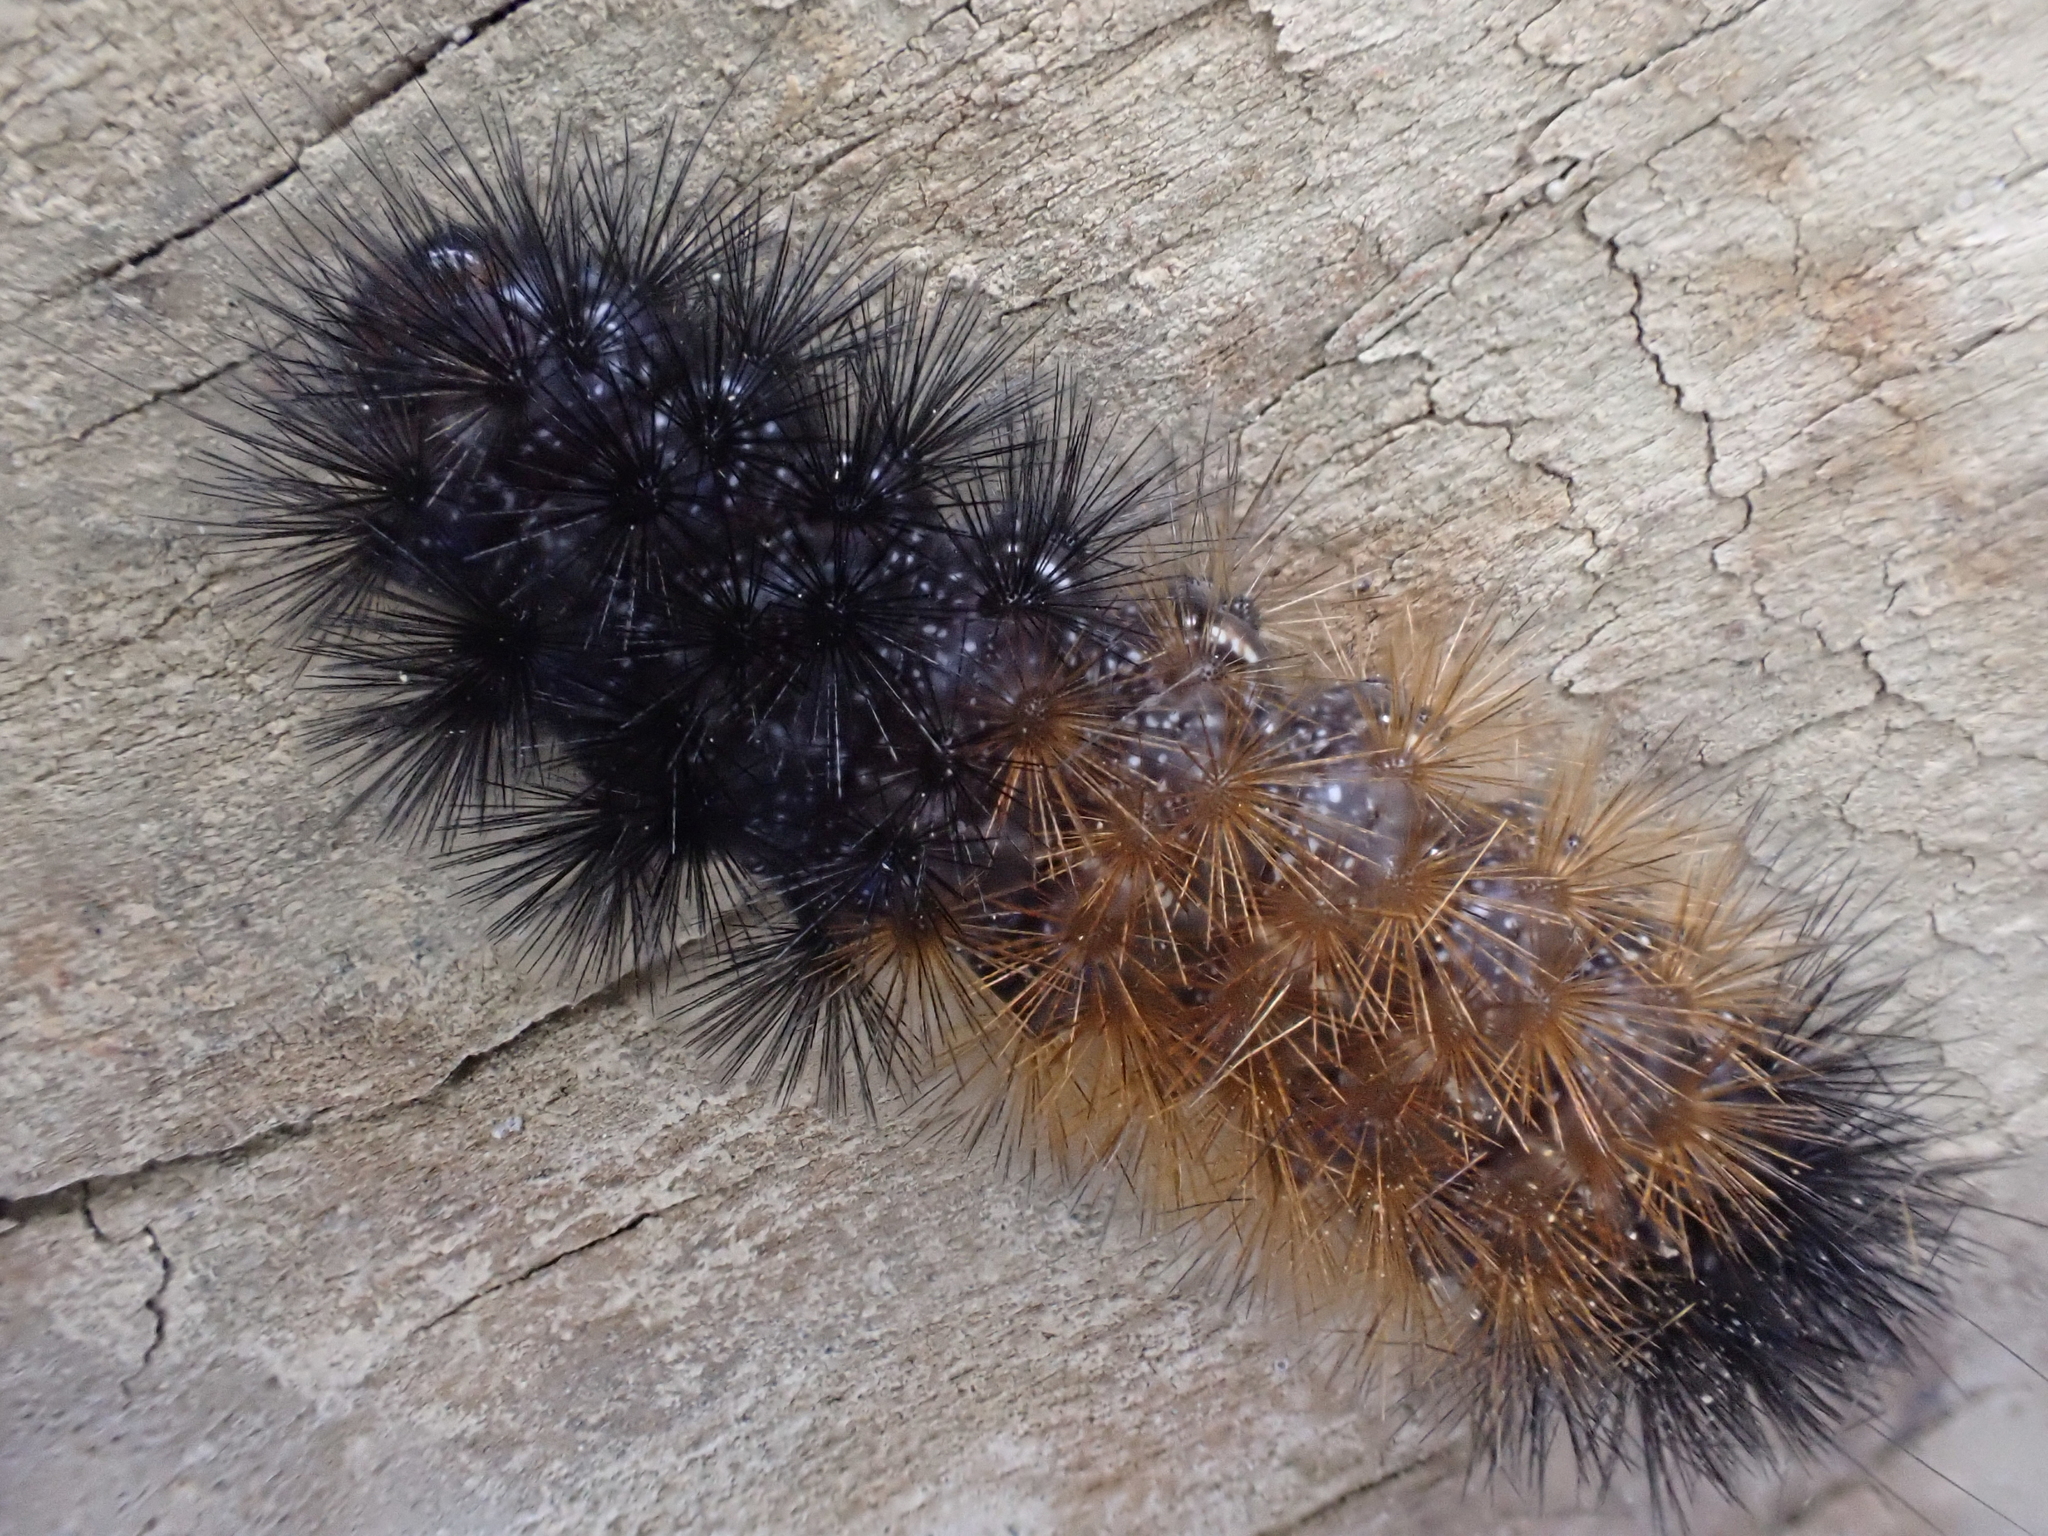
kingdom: Animalia
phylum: Arthropoda
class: Insecta
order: Lepidoptera
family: Erebidae
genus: Pyrrharctia
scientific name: Pyrrharctia isabella
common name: Isabella tiger moth
